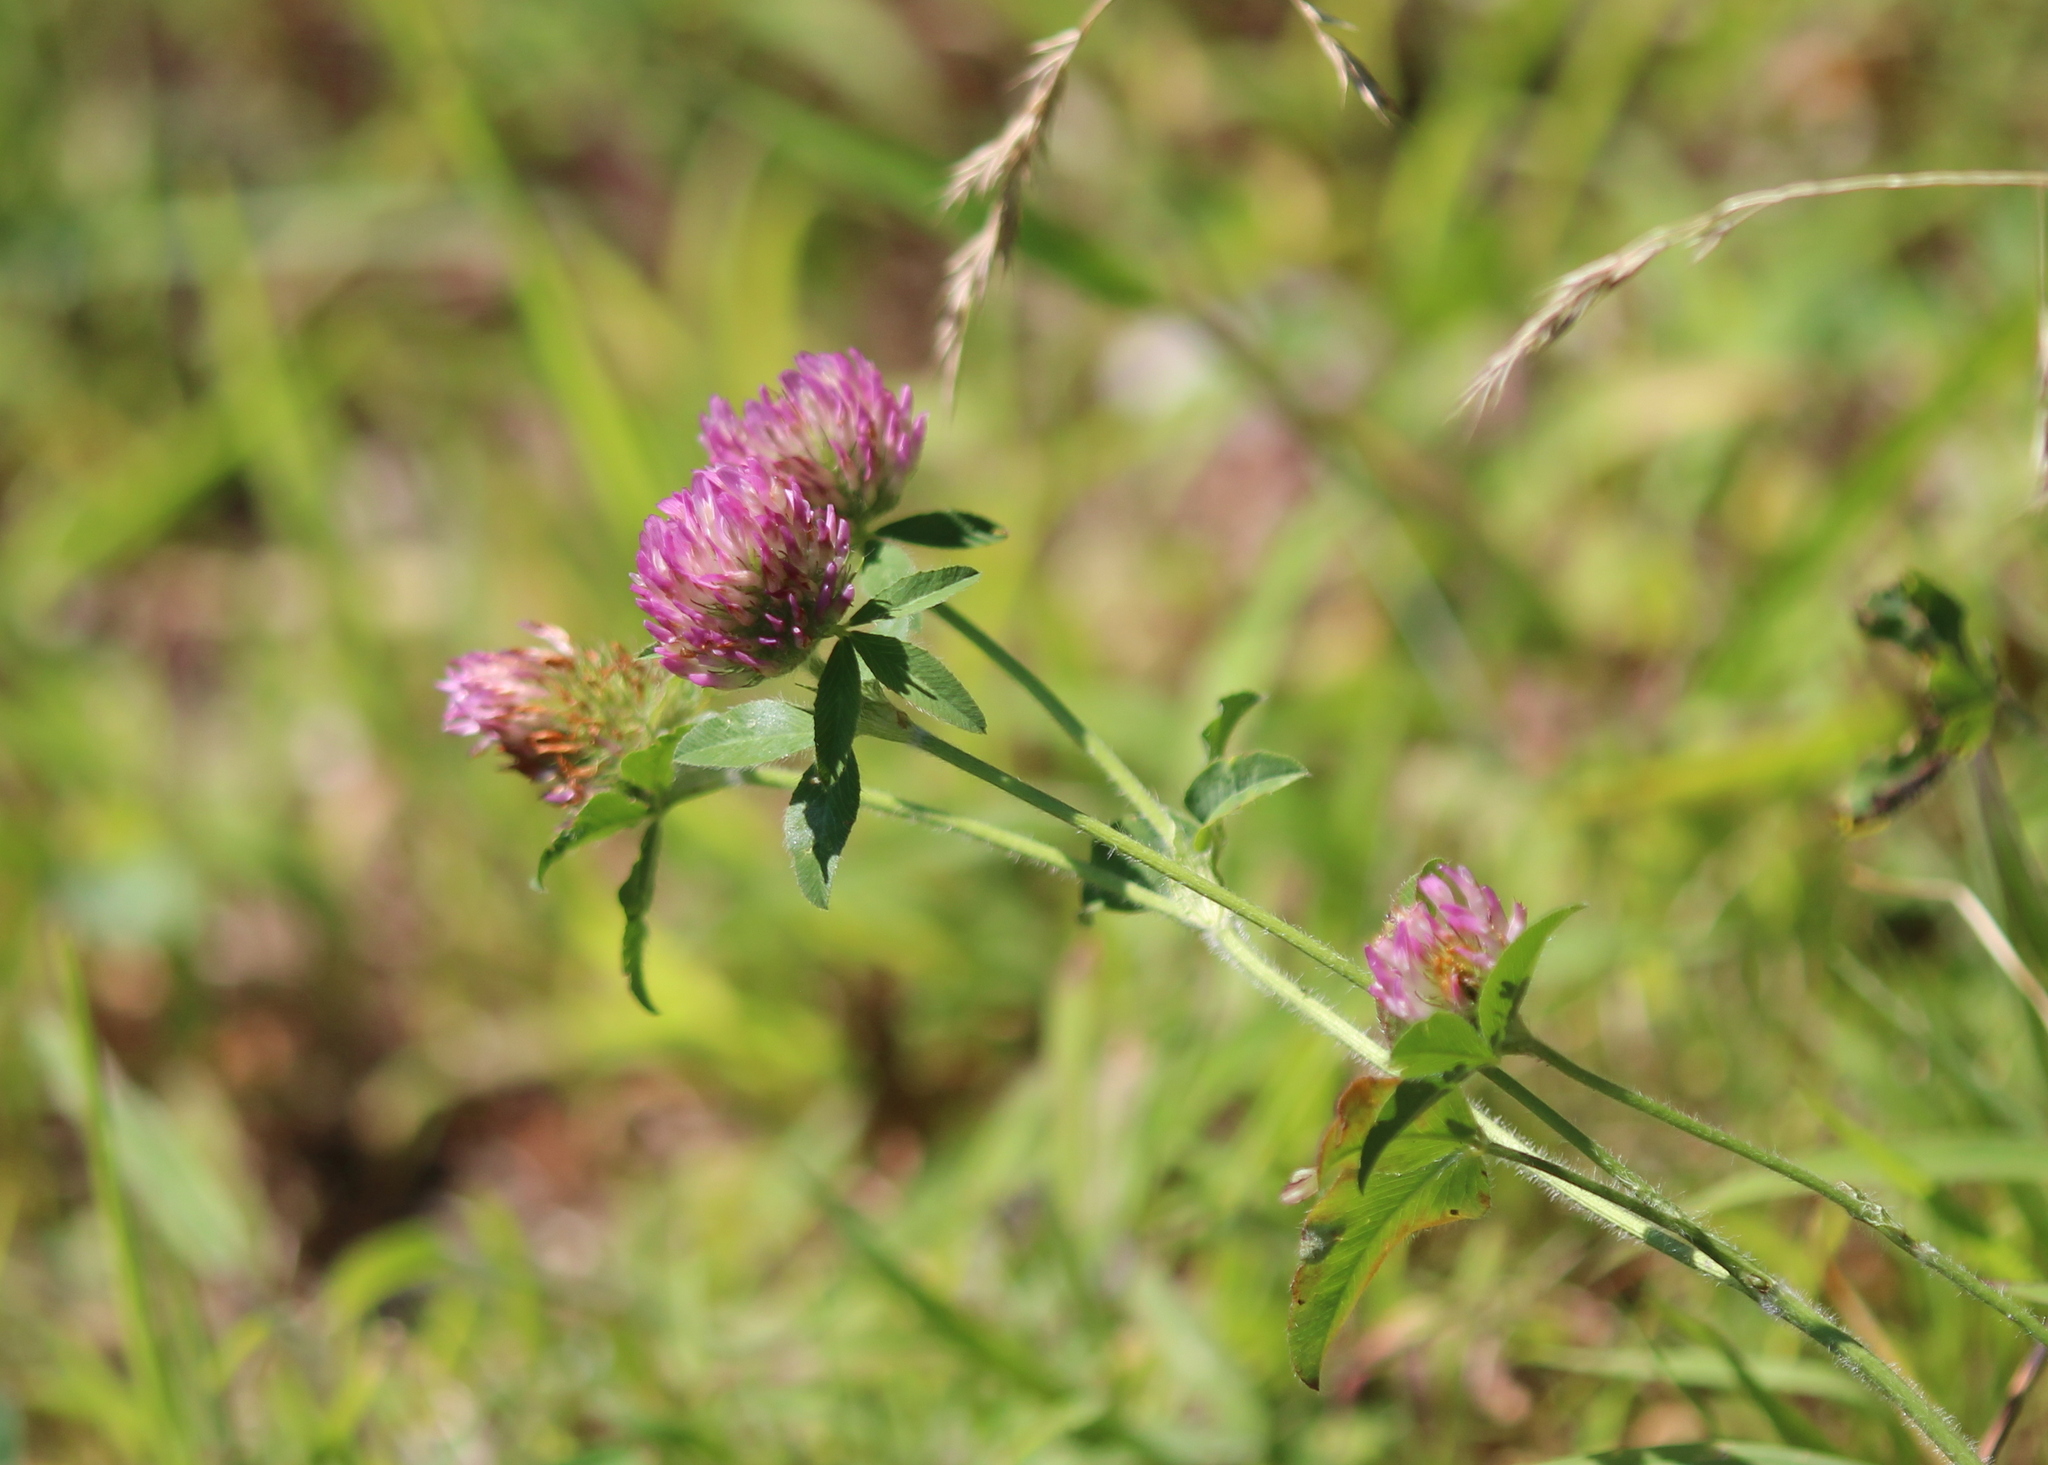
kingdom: Plantae
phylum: Tracheophyta
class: Magnoliopsida
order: Fabales
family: Fabaceae
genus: Trifolium
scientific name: Trifolium pratense
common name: Red clover
